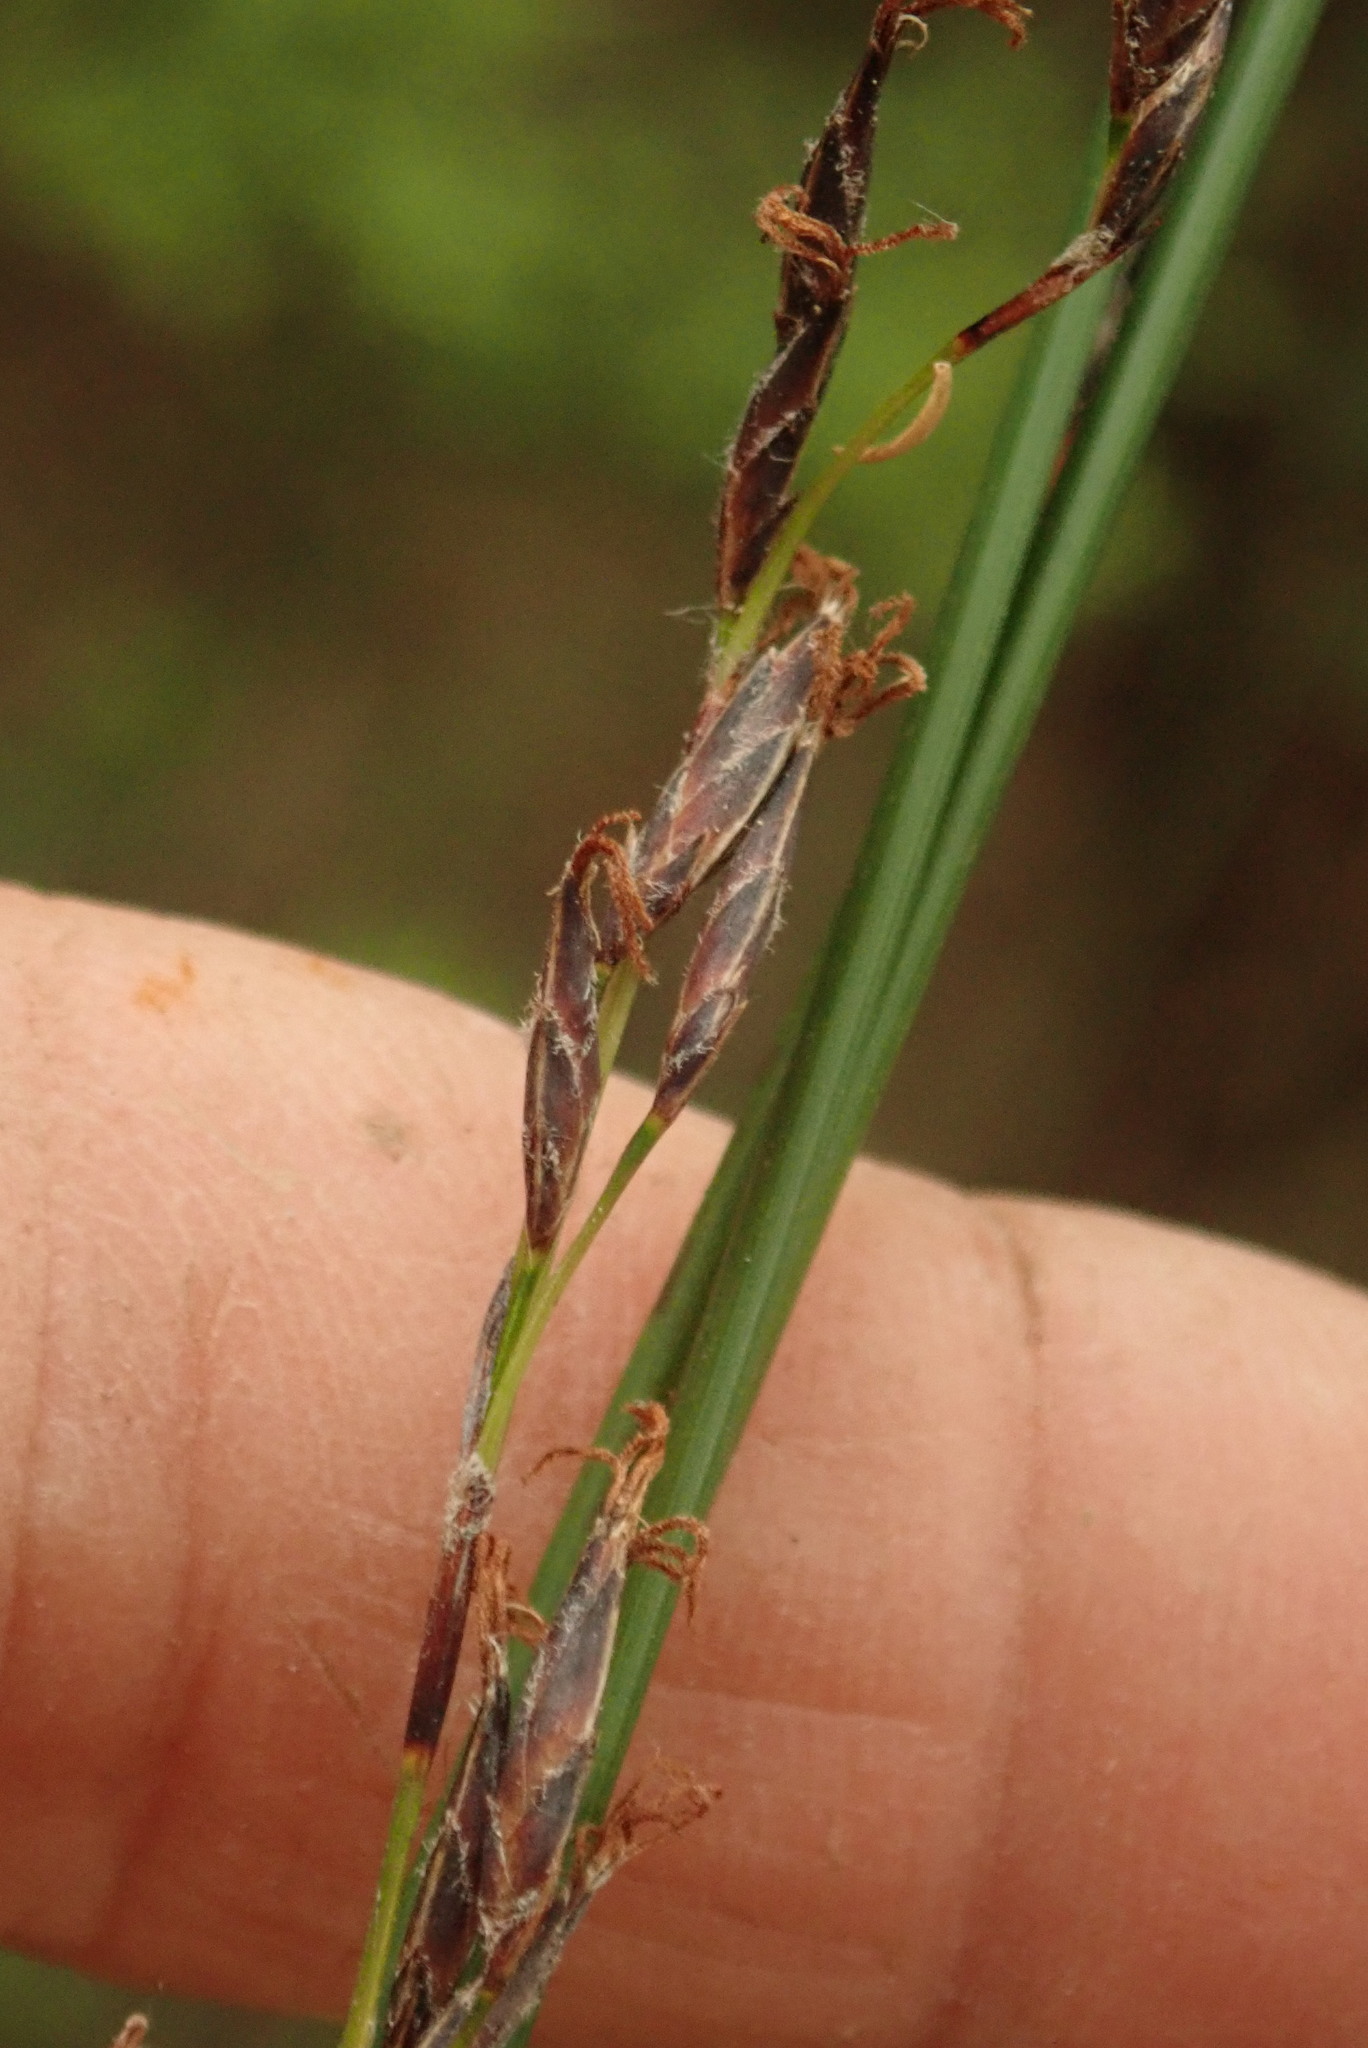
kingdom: Plantae
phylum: Tracheophyta
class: Liliopsida
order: Poales
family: Cyperaceae
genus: Lepidosperma
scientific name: Lepidosperma australe
